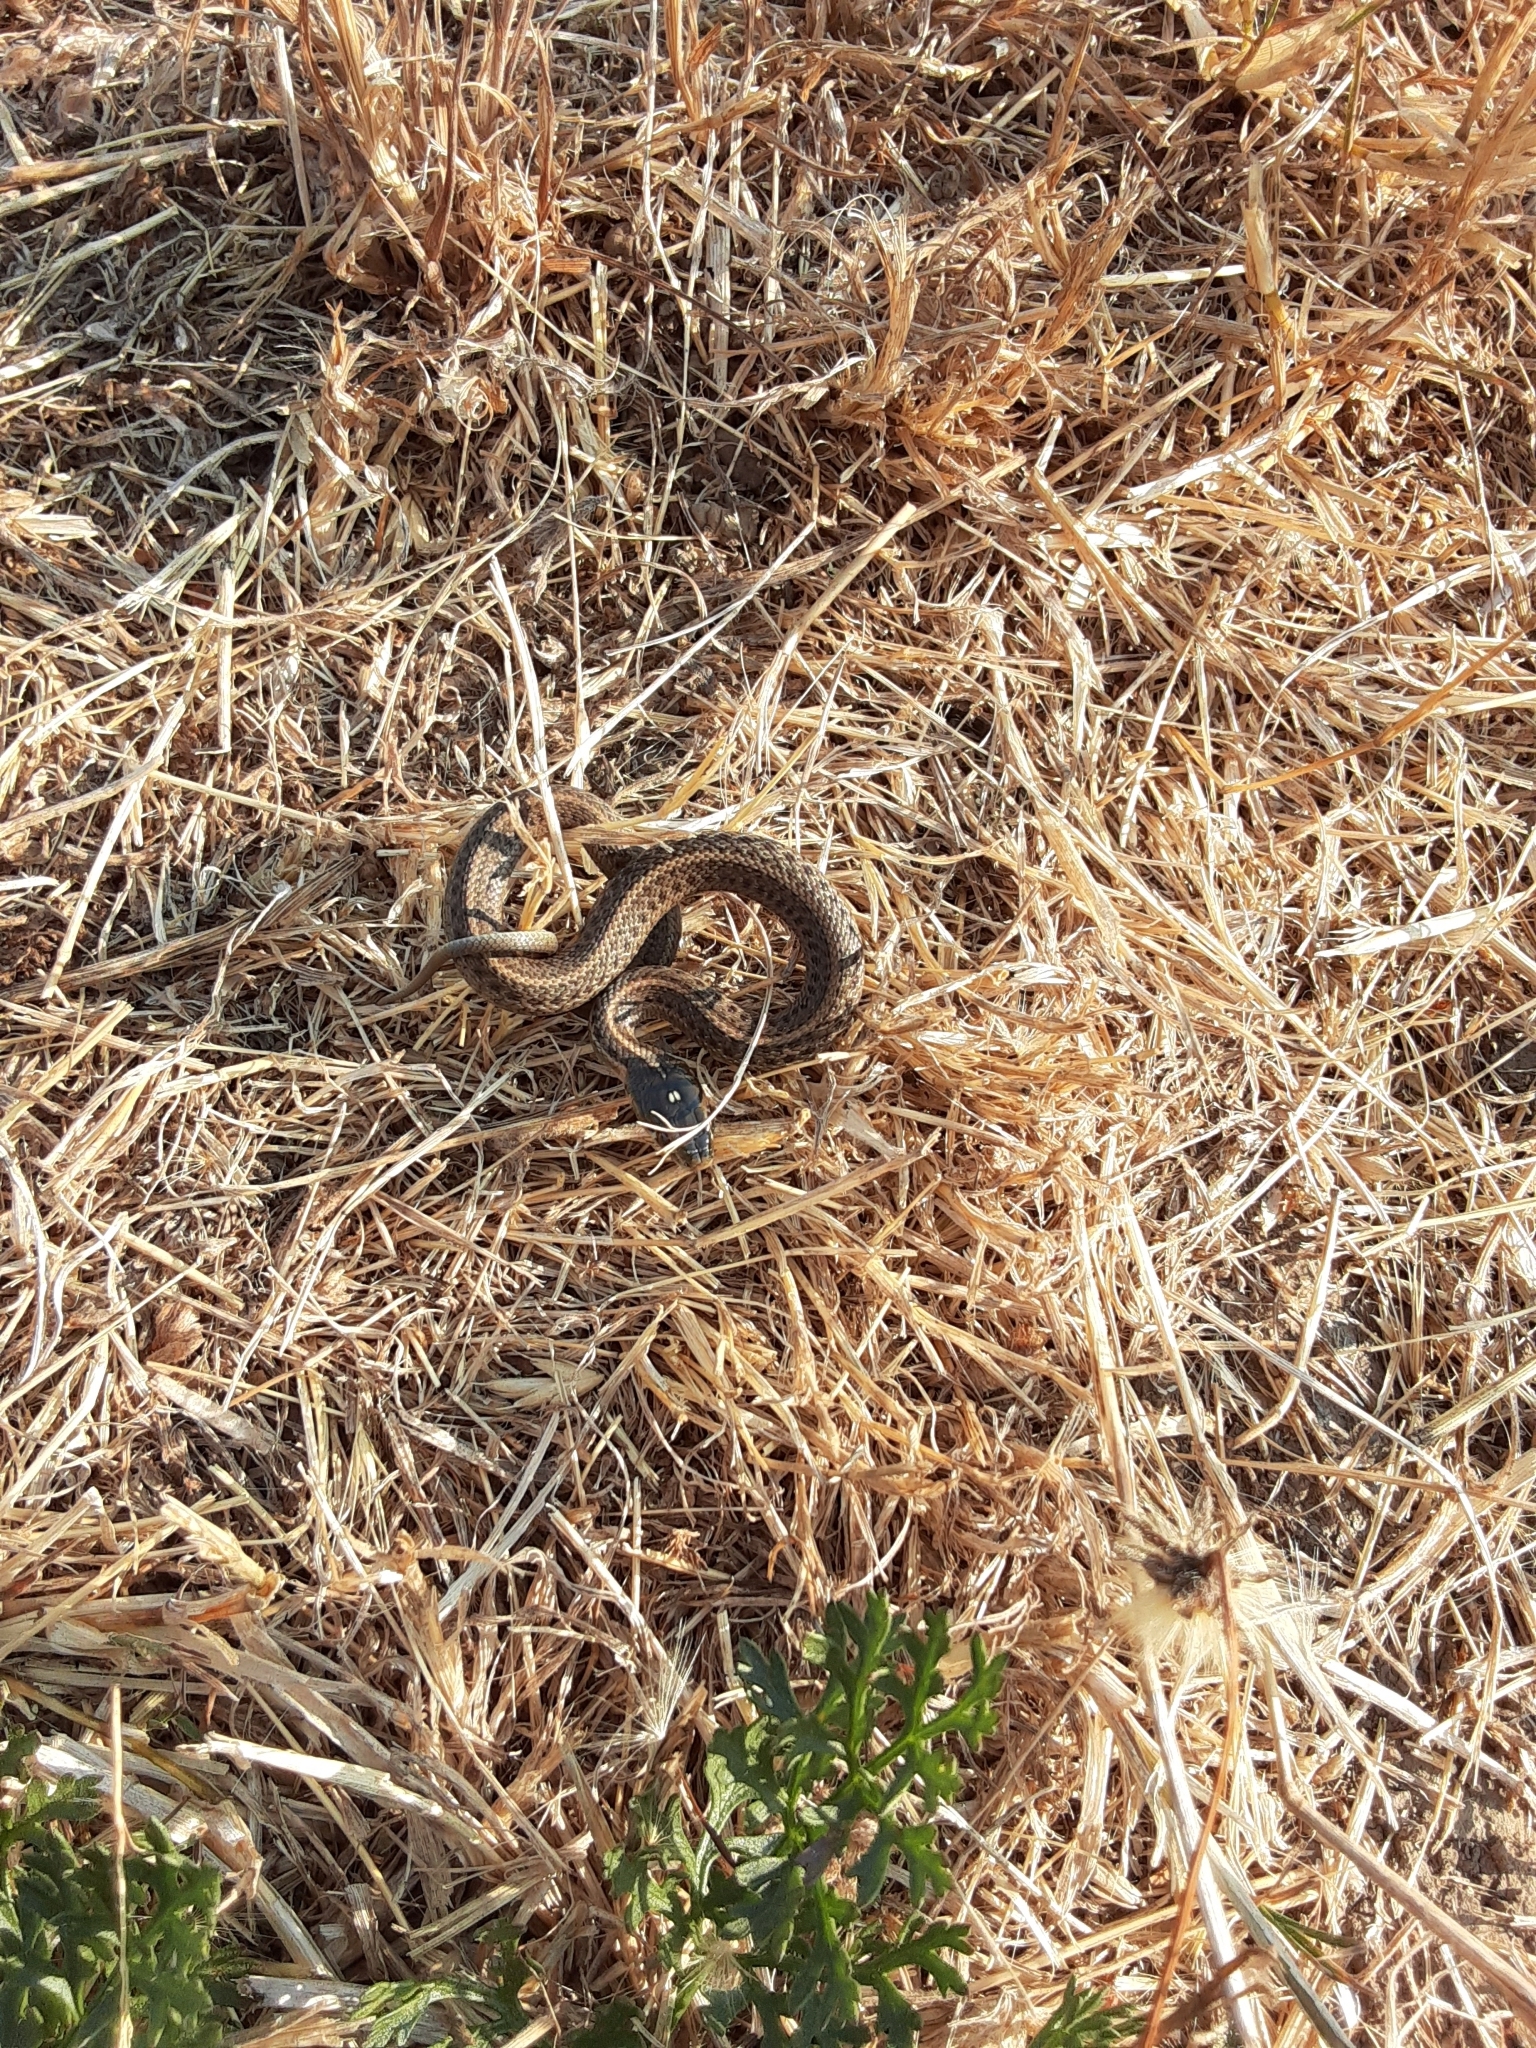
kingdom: Animalia
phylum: Chordata
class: Squamata
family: Colubridae
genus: Thamnophis
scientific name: Thamnophis ordinoides
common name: Northwestern garter snake
